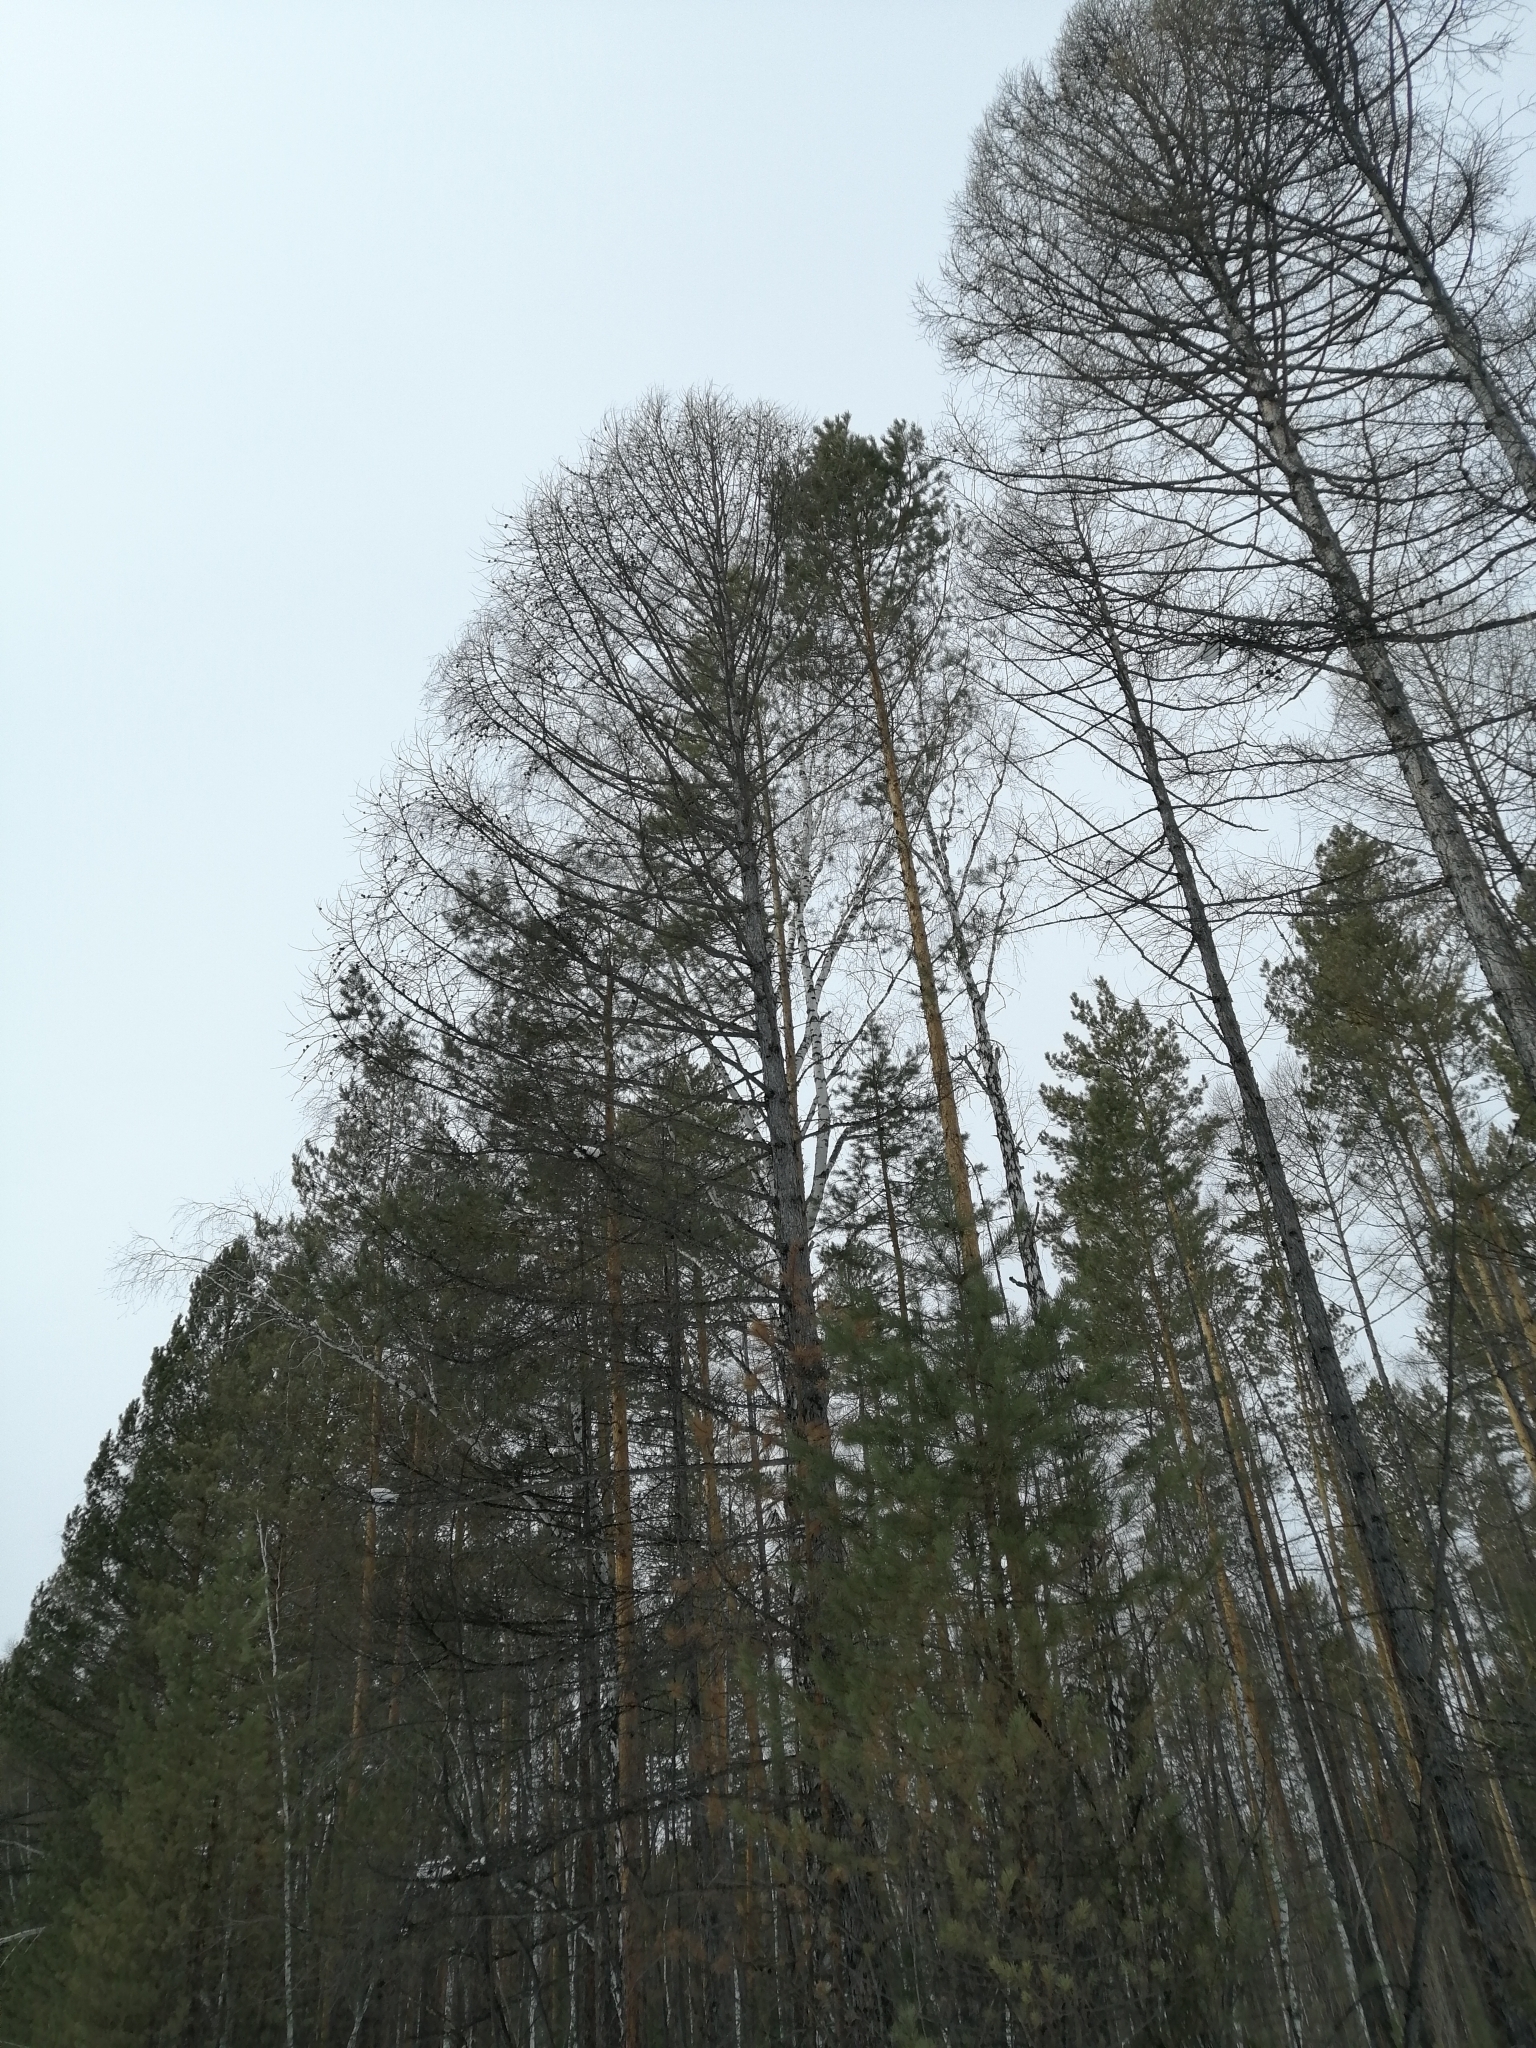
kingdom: Plantae
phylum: Tracheophyta
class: Pinopsida
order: Pinales
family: Pinaceae
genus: Larix
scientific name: Larix sibirica
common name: Siberian larch
